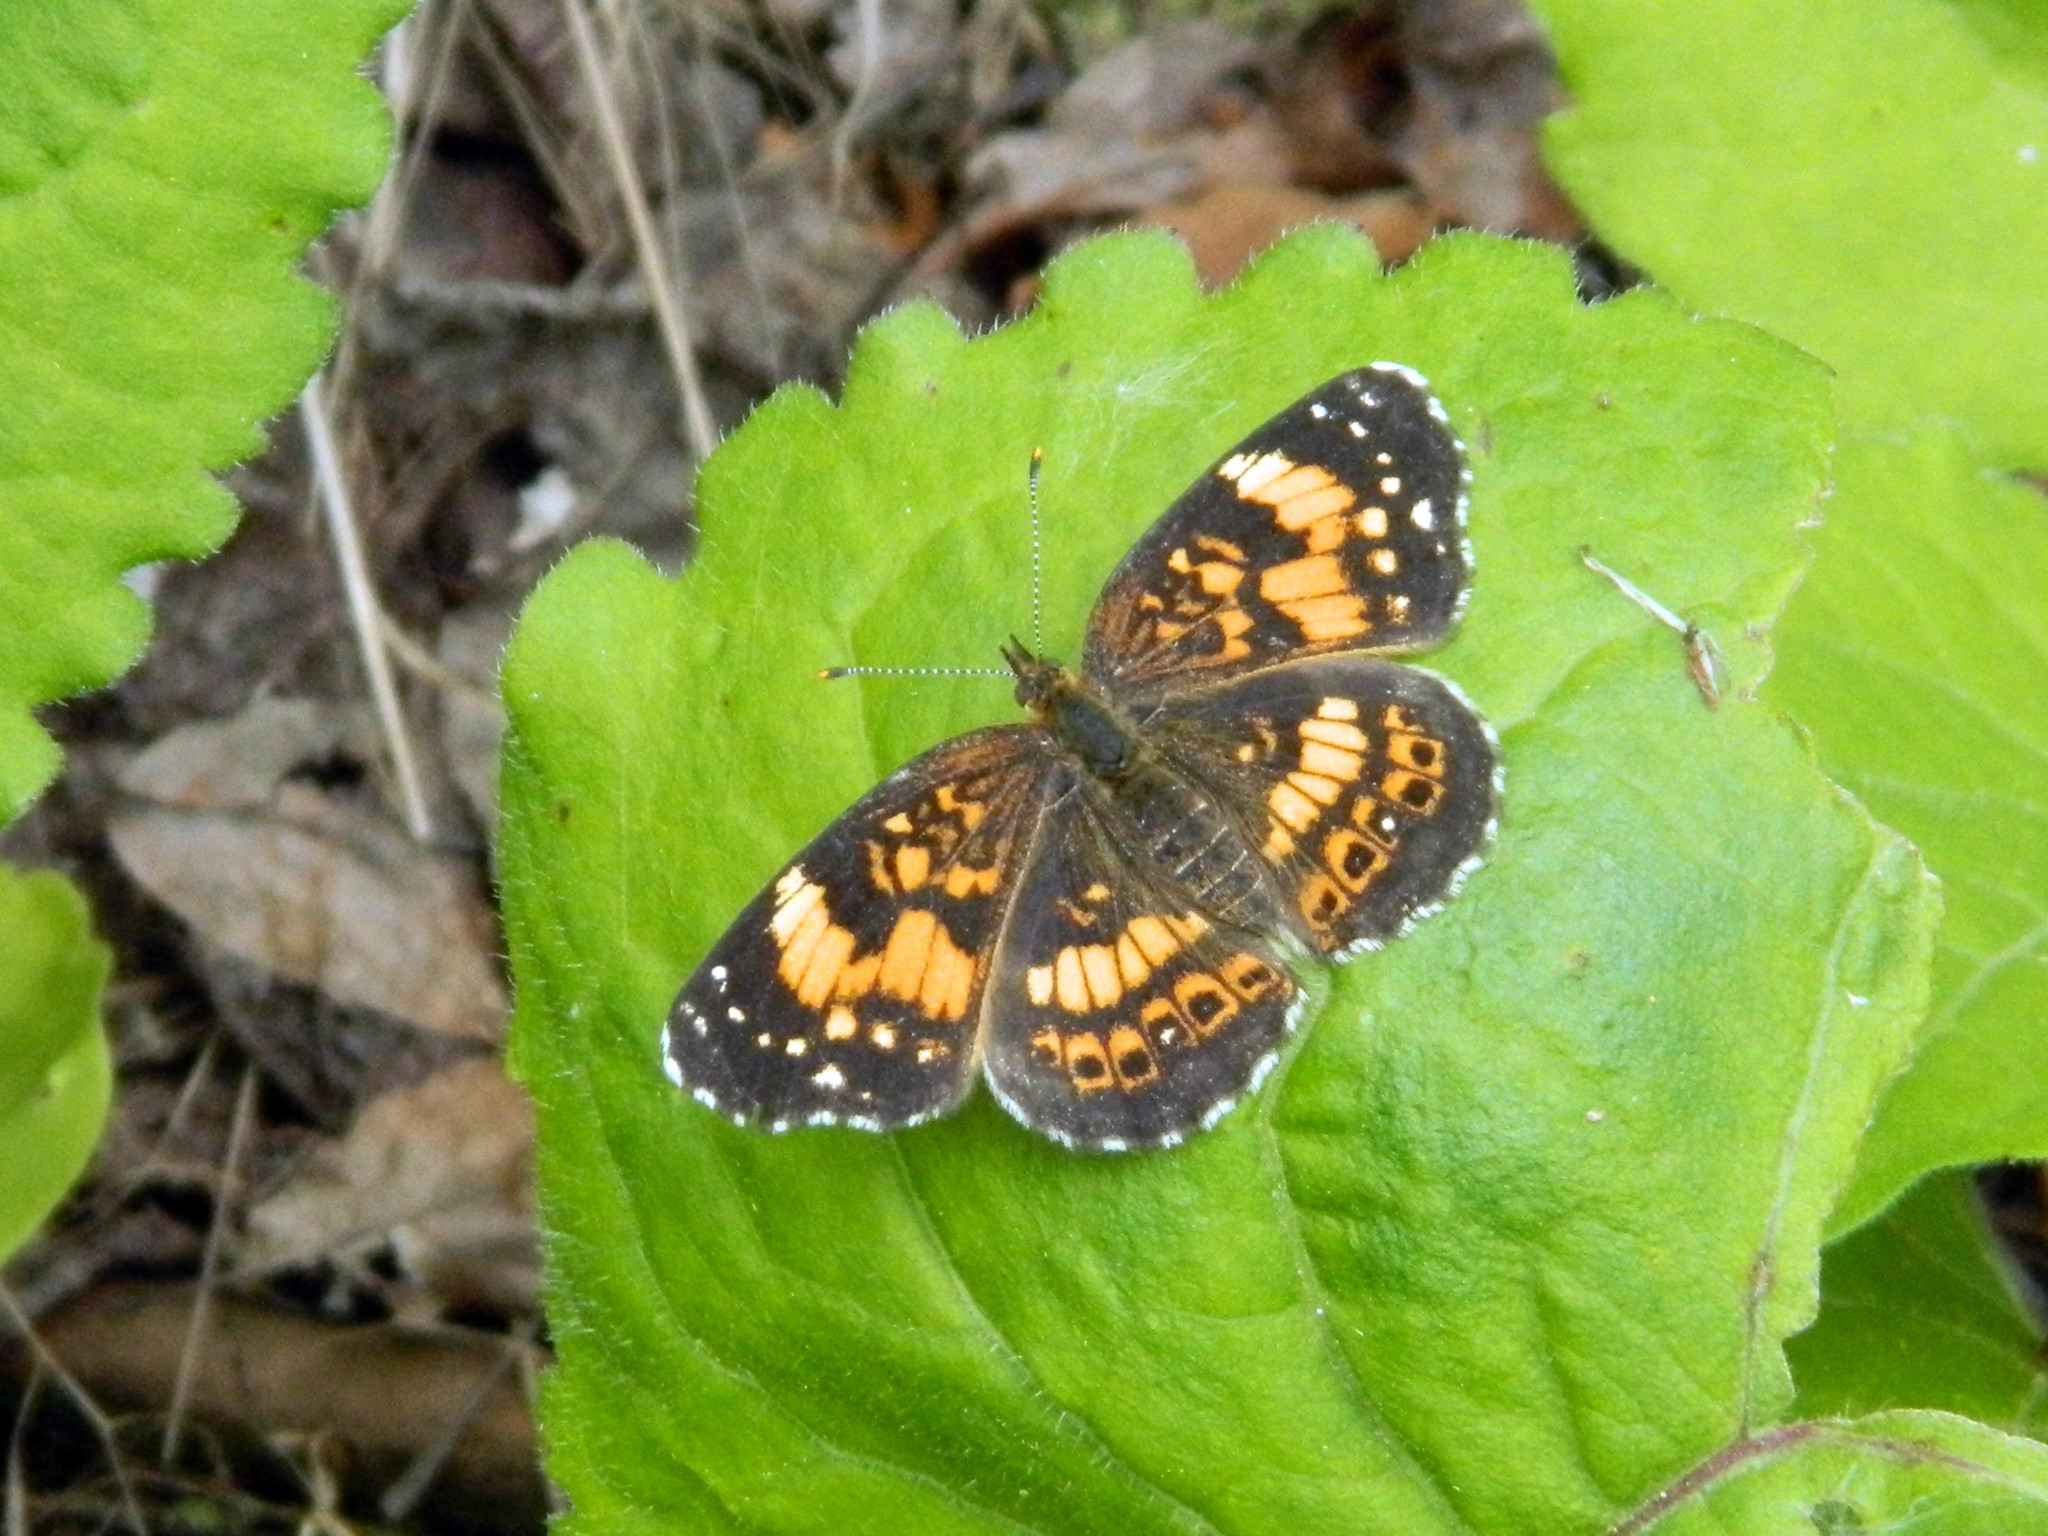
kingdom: Animalia
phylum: Arthropoda
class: Insecta
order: Lepidoptera
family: Nymphalidae
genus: Chlosyne
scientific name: Chlosyne nycteis
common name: Silvery checkerspot
